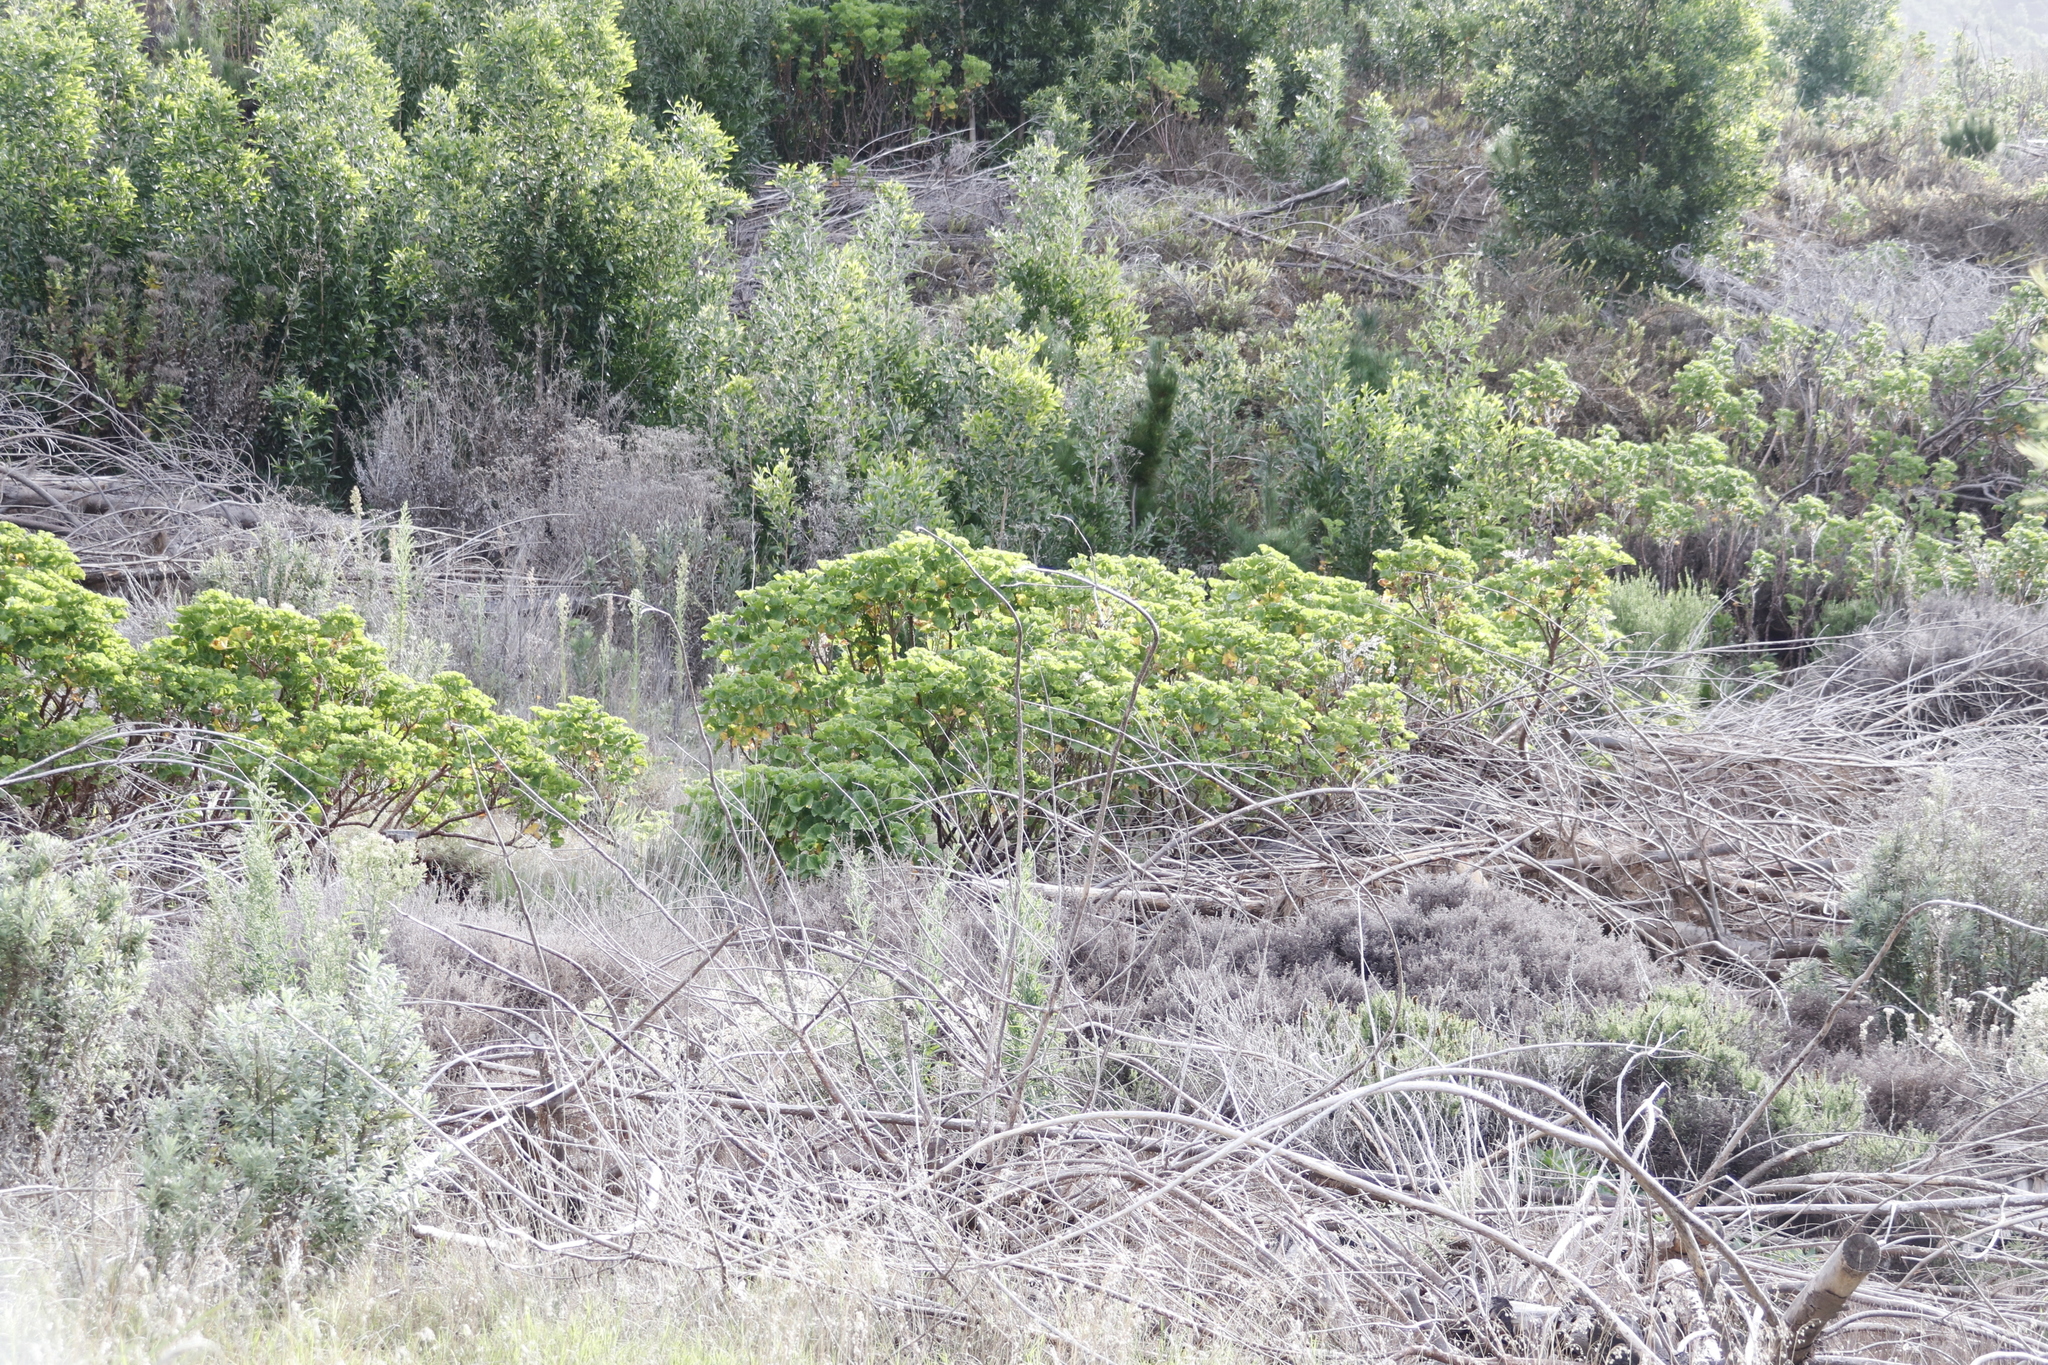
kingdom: Plantae
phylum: Tracheophyta
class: Magnoliopsida
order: Geraniales
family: Geraniaceae
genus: Pelargonium
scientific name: Pelargonium cucullatum
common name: Tree pelargonium
